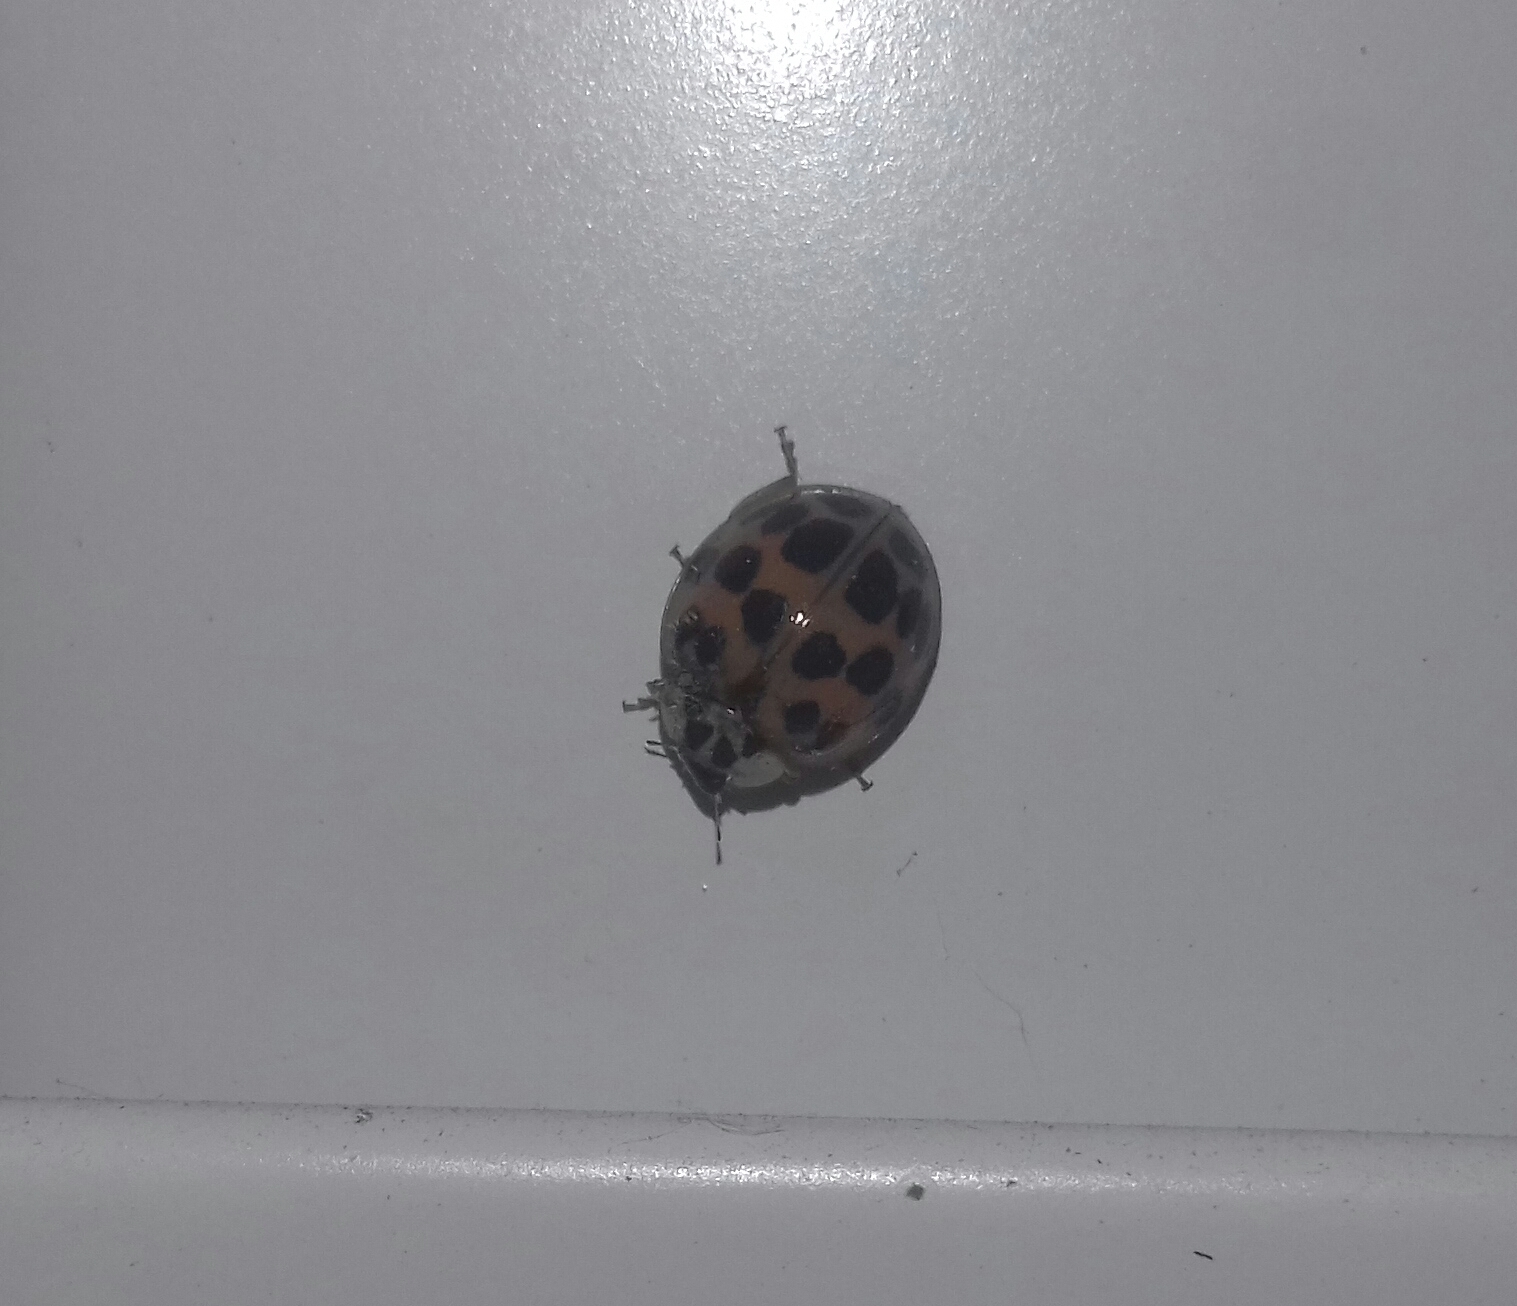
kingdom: Animalia
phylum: Arthropoda
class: Insecta
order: Coleoptera
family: Coccinellidae
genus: Harmonia
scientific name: Harmonia axyridis
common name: Harlequin ladybird
